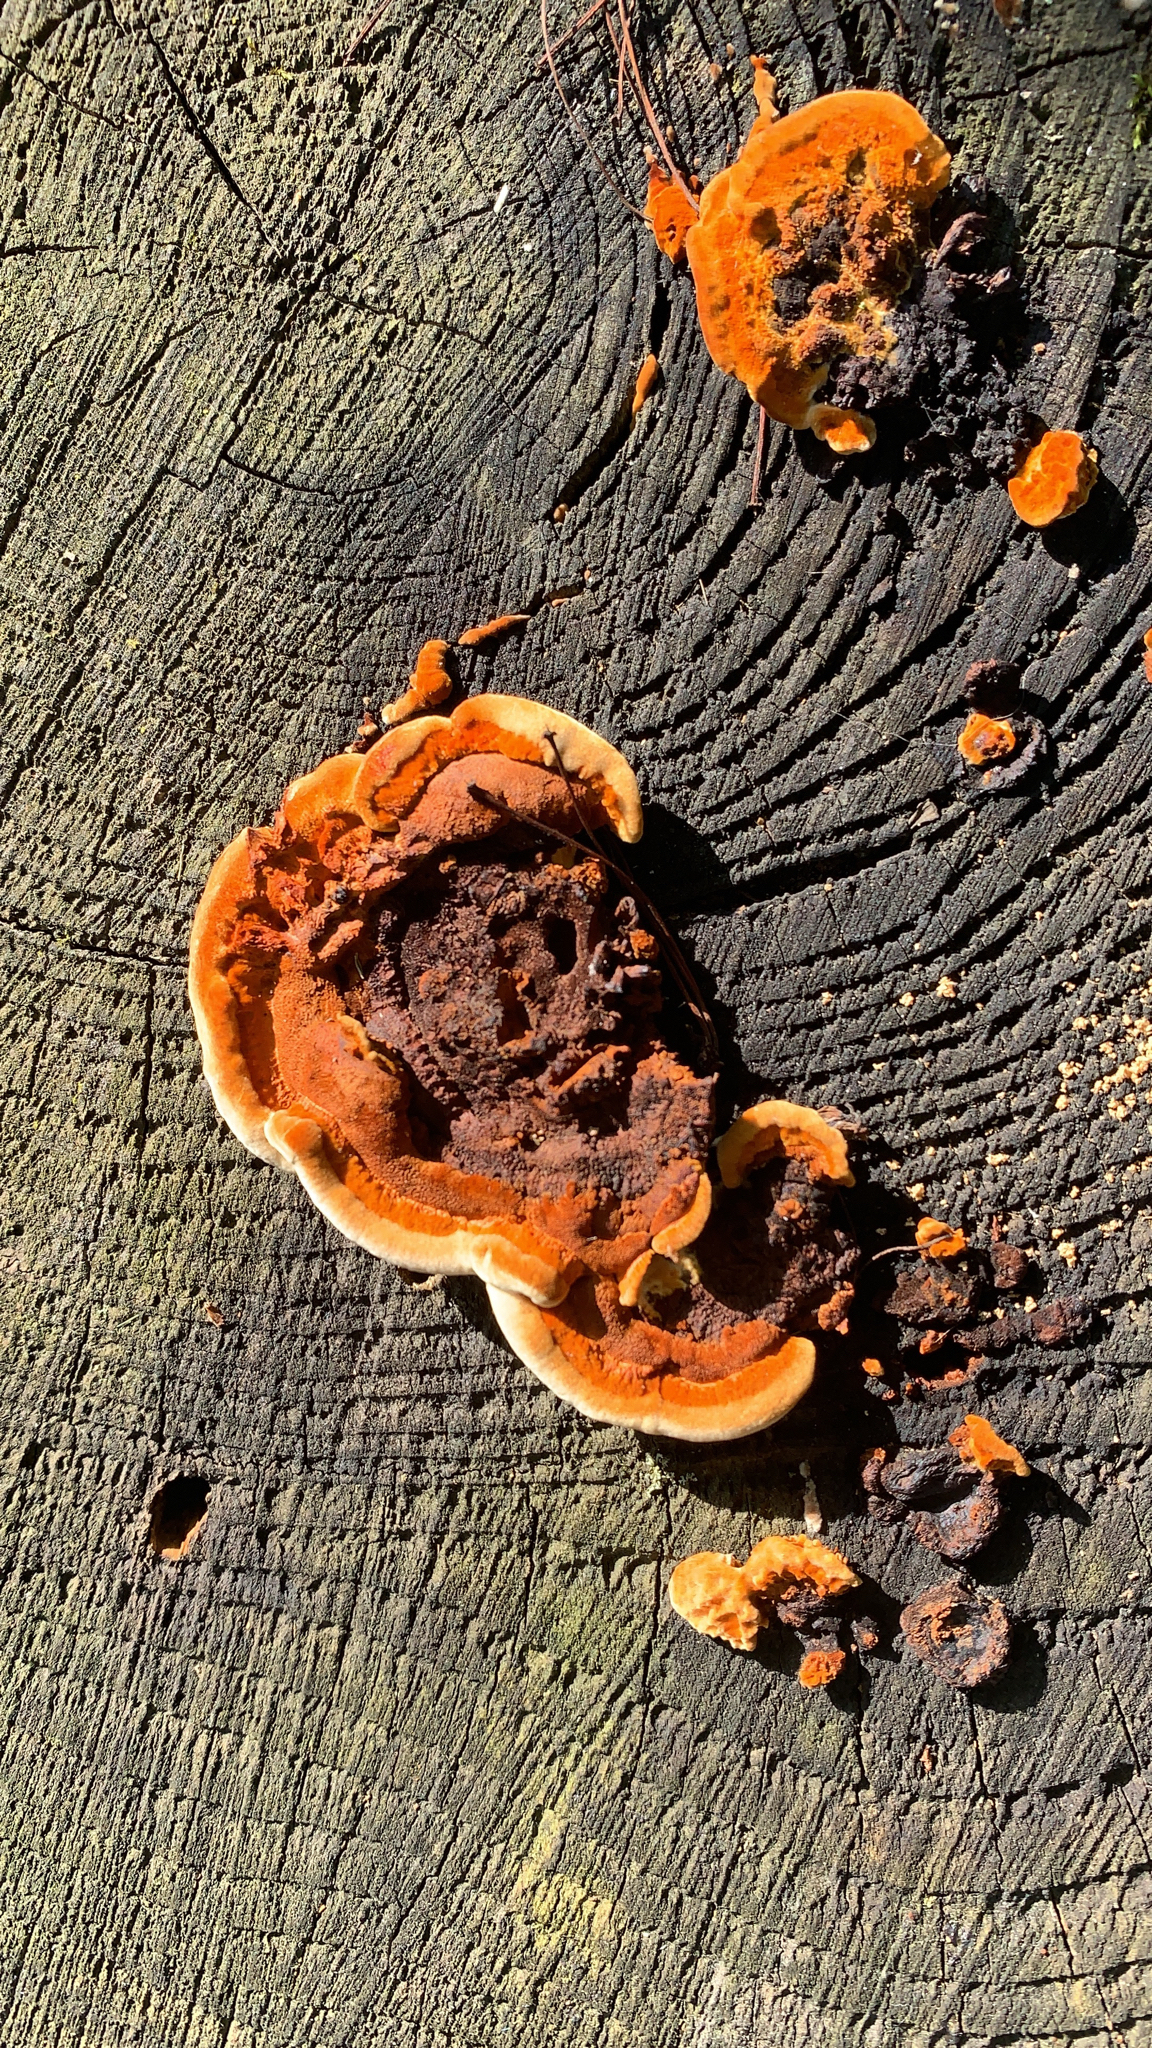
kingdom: Fungi
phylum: Basidiomycota
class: Agaricomycetes
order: Gloeophyllales
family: Gloeophyllaceae
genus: Gloeophyllum
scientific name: Gloeophyllum sepiarium
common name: Conifer mazegill
